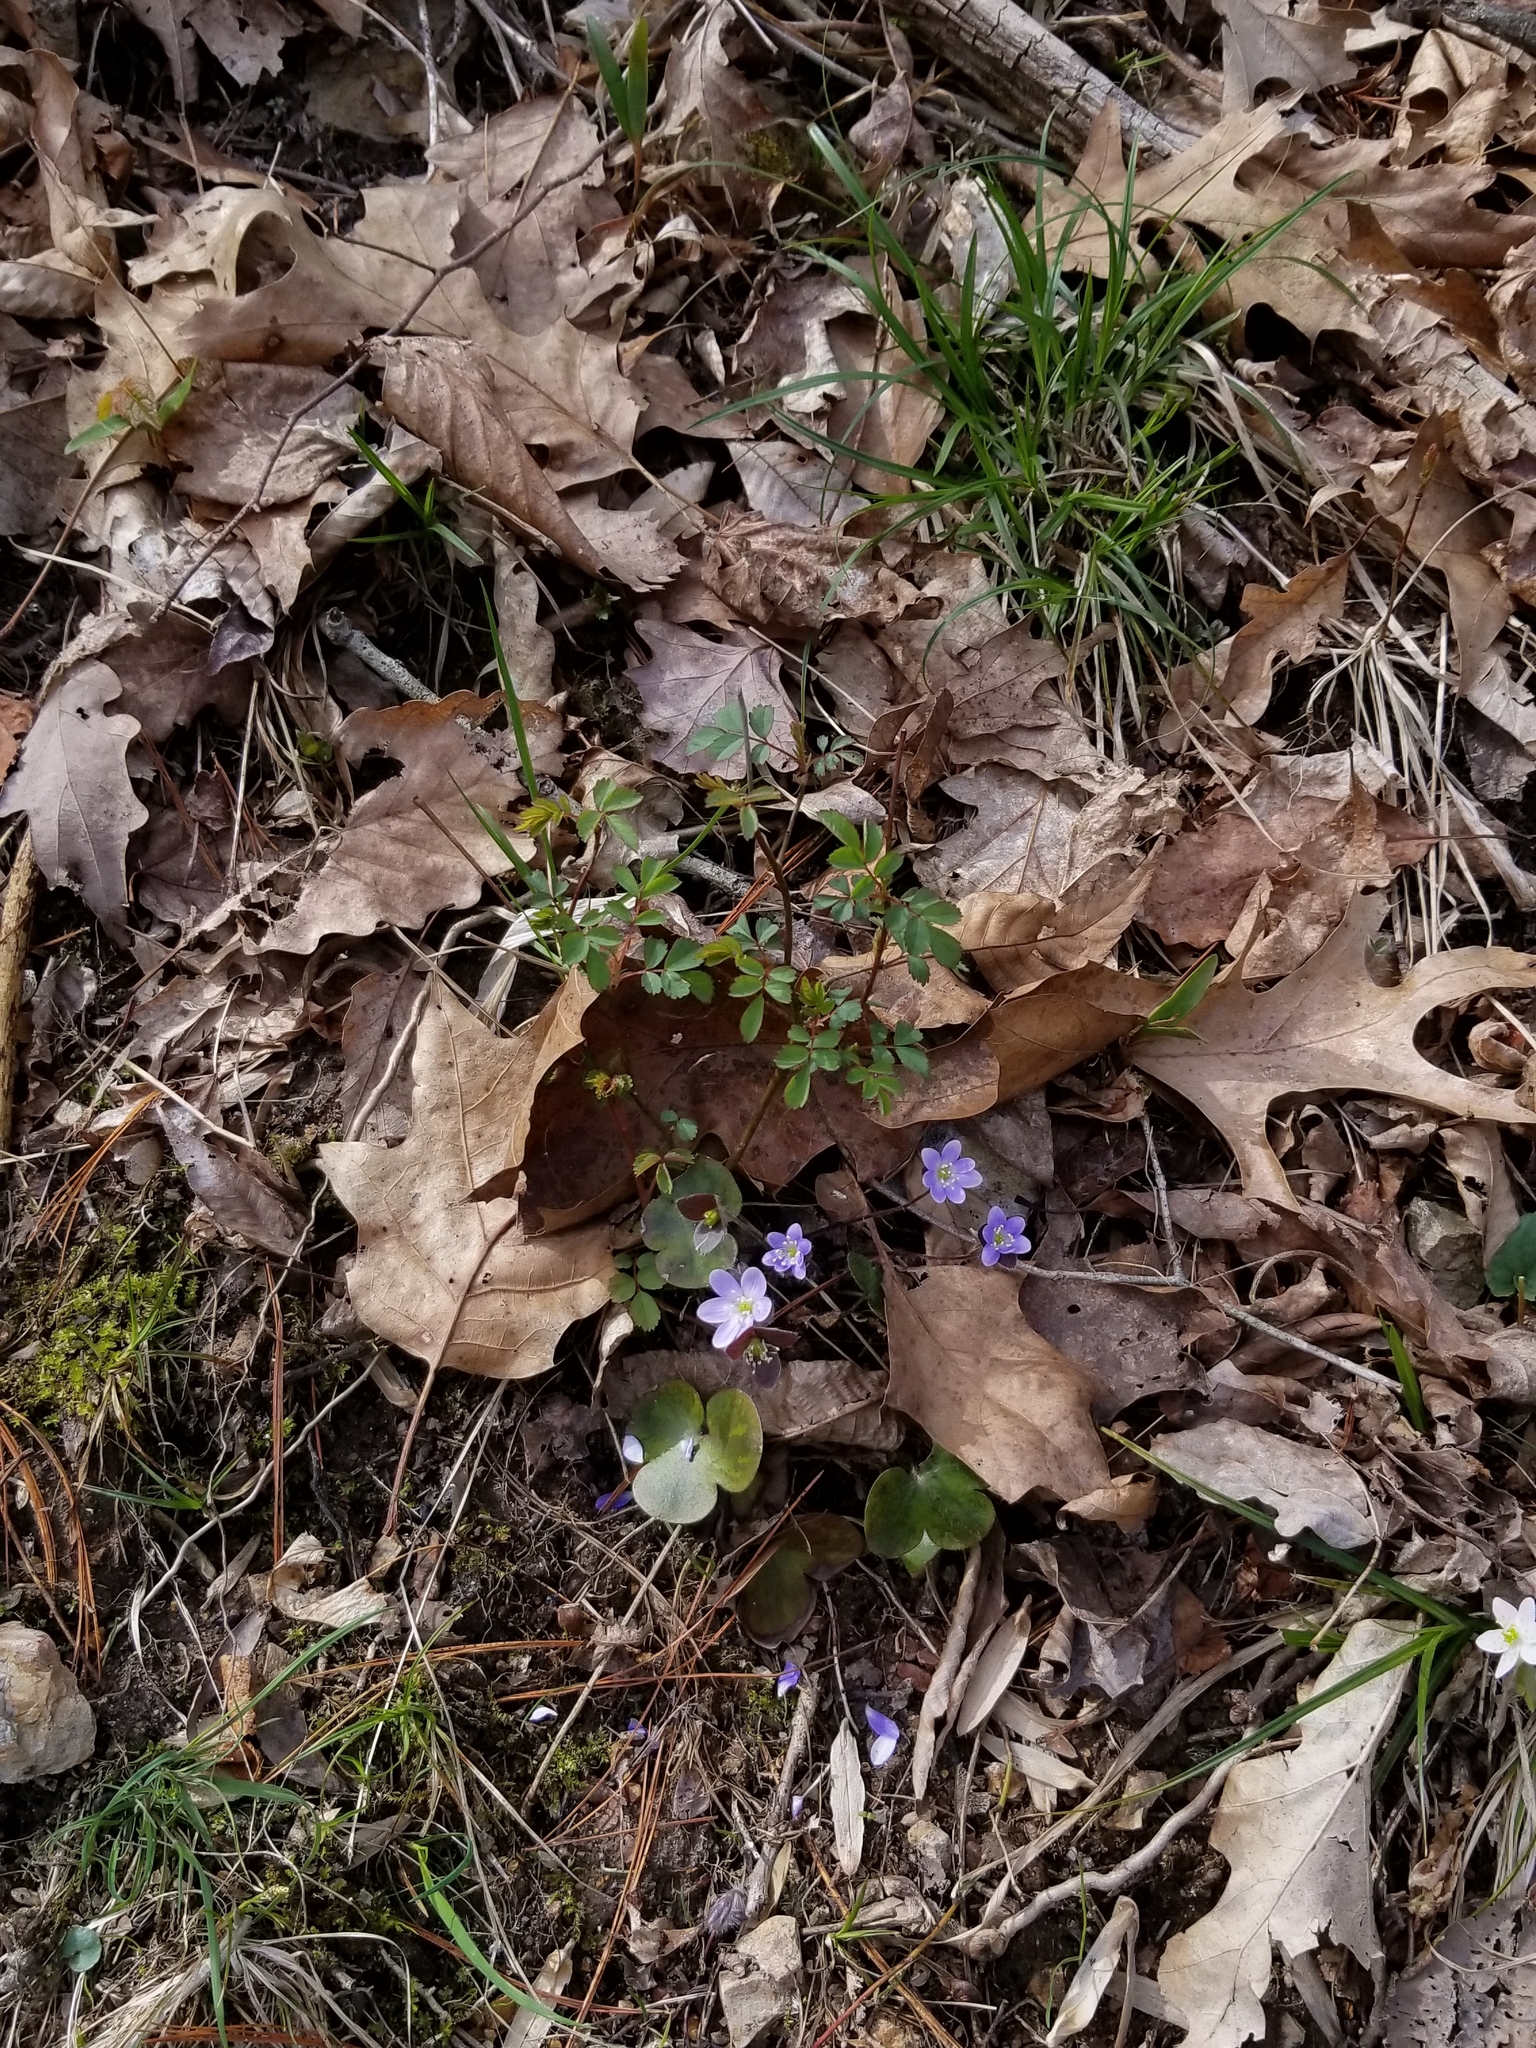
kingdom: Plantae
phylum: Tracheophyta
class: Magnoliopsida
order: Ranunculales
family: Ranunculaceae
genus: Hepatica
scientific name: Hepatica americana
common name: American hepatica
